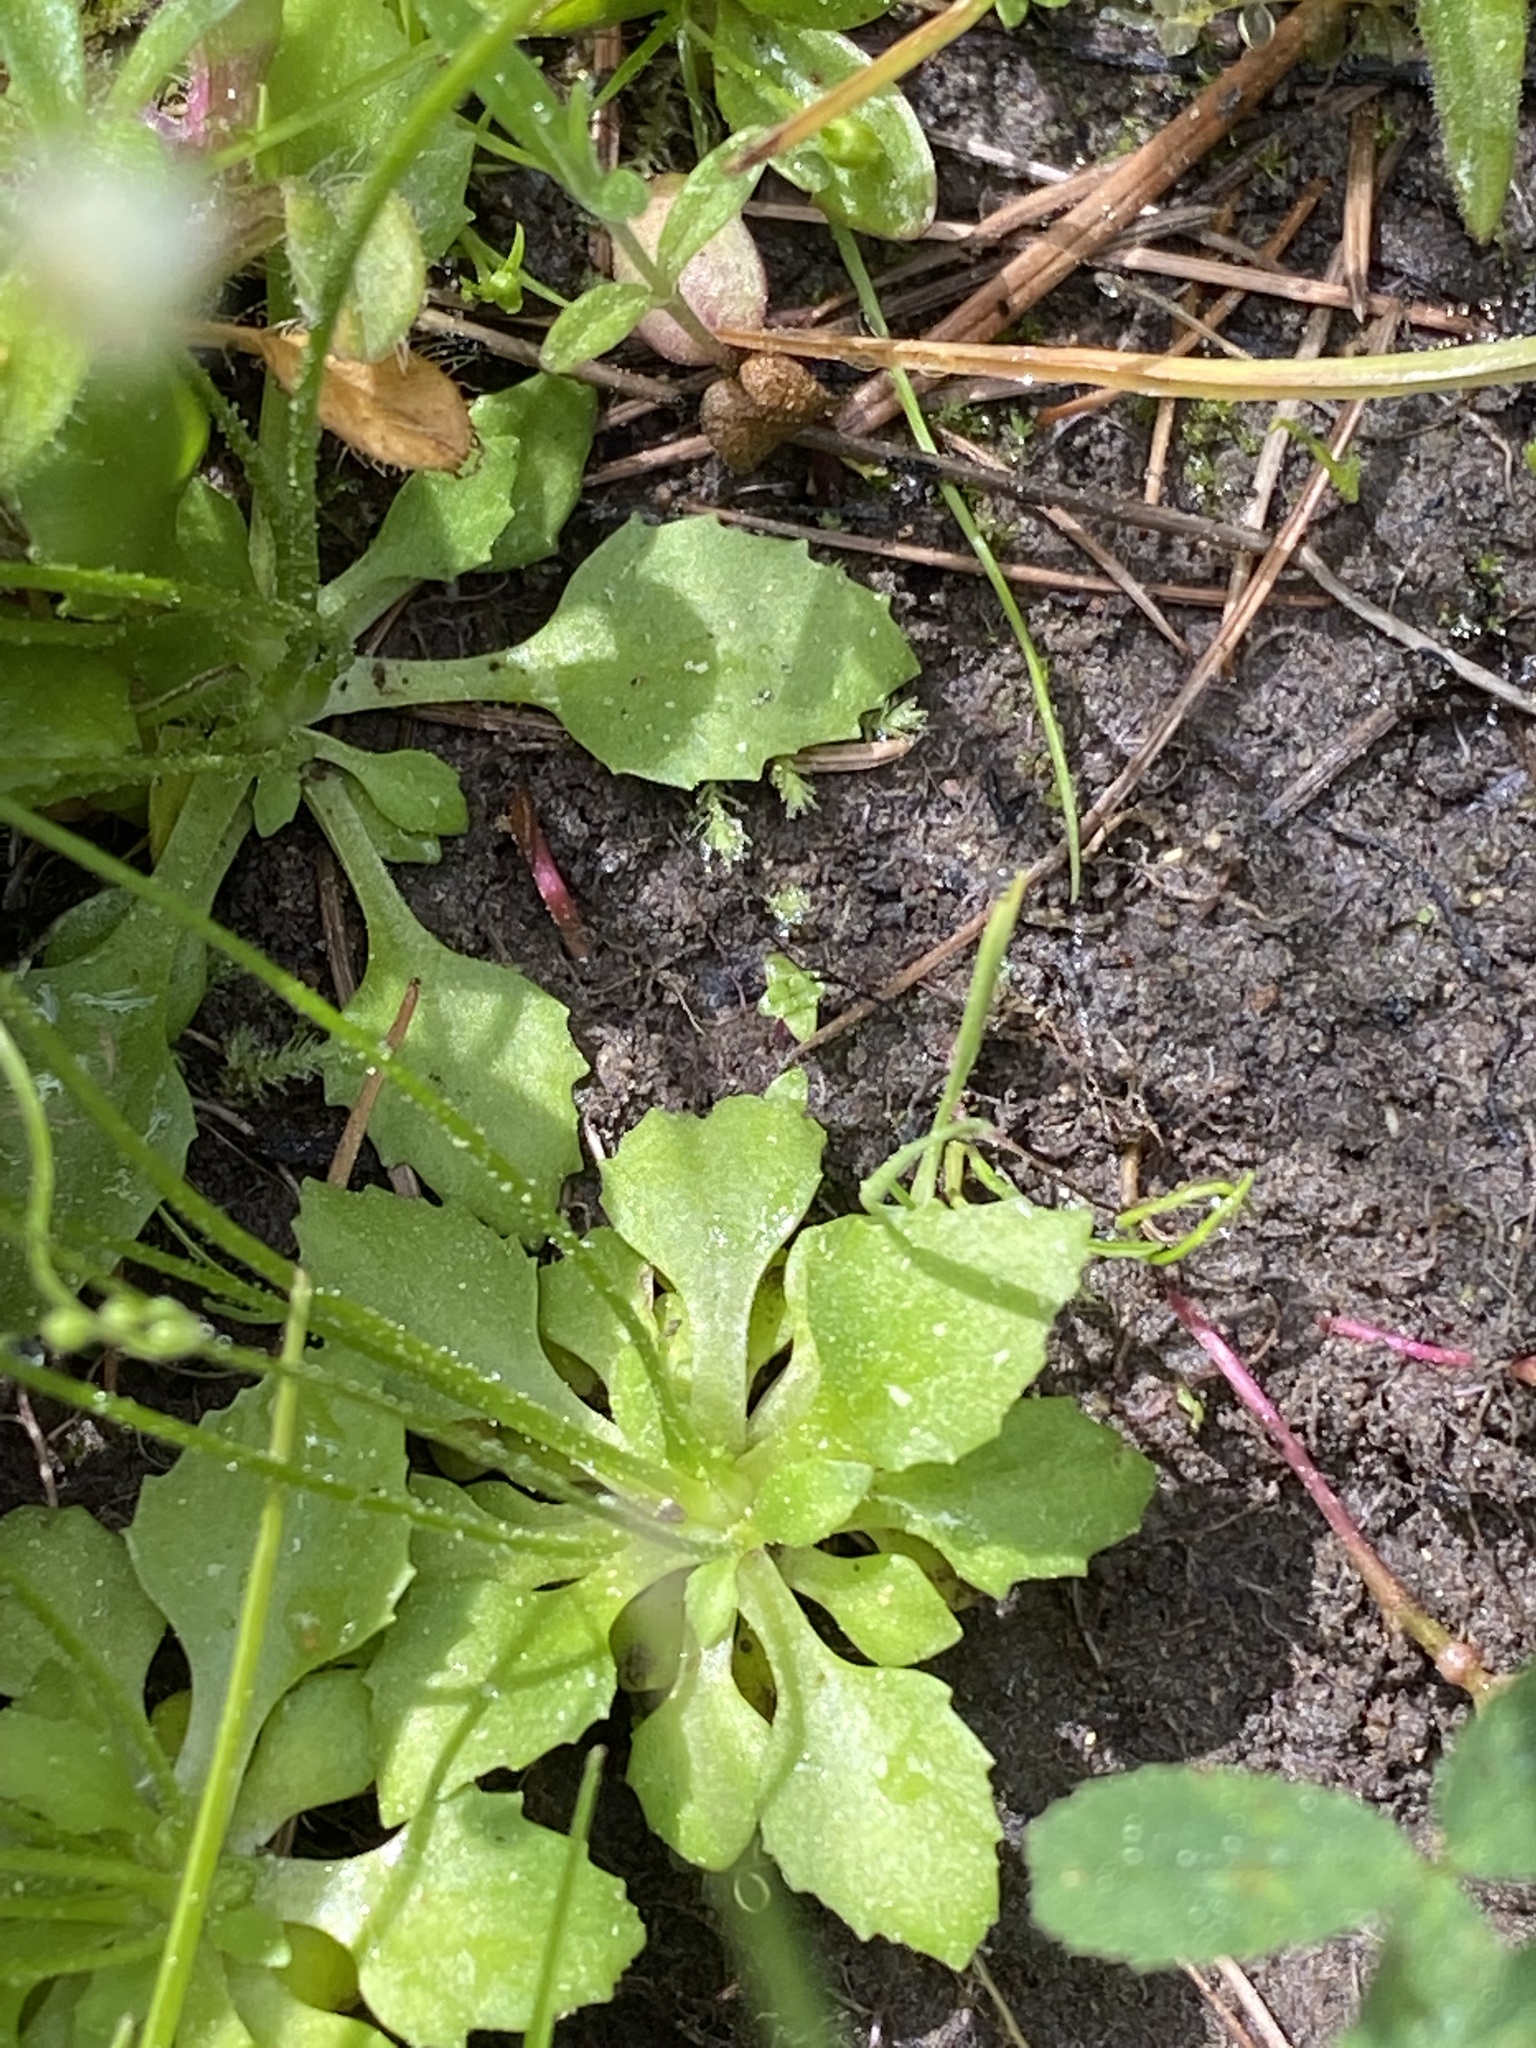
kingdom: Plantae
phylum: Tracheophyta
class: Magnoliopsida
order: Ericales
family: Primulaceae
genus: Androsace
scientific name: Androsace filiformis
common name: Filiform rock jasmine
